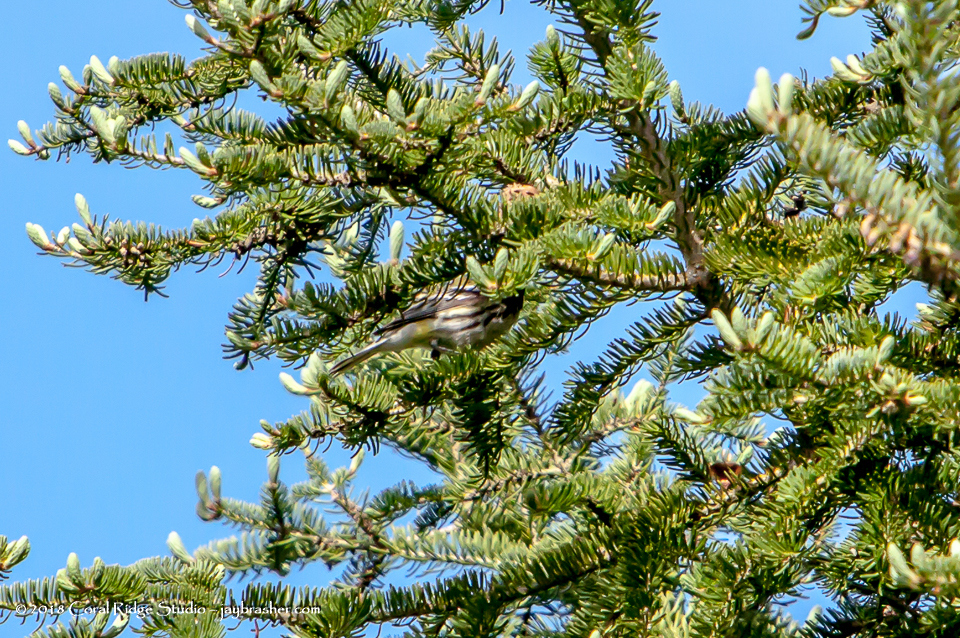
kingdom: Animalia
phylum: Chordata
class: Aves
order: Passeriformes
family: Parulidae
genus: Setophaga
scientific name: Setophaga virens
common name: Black-throated green warbler
